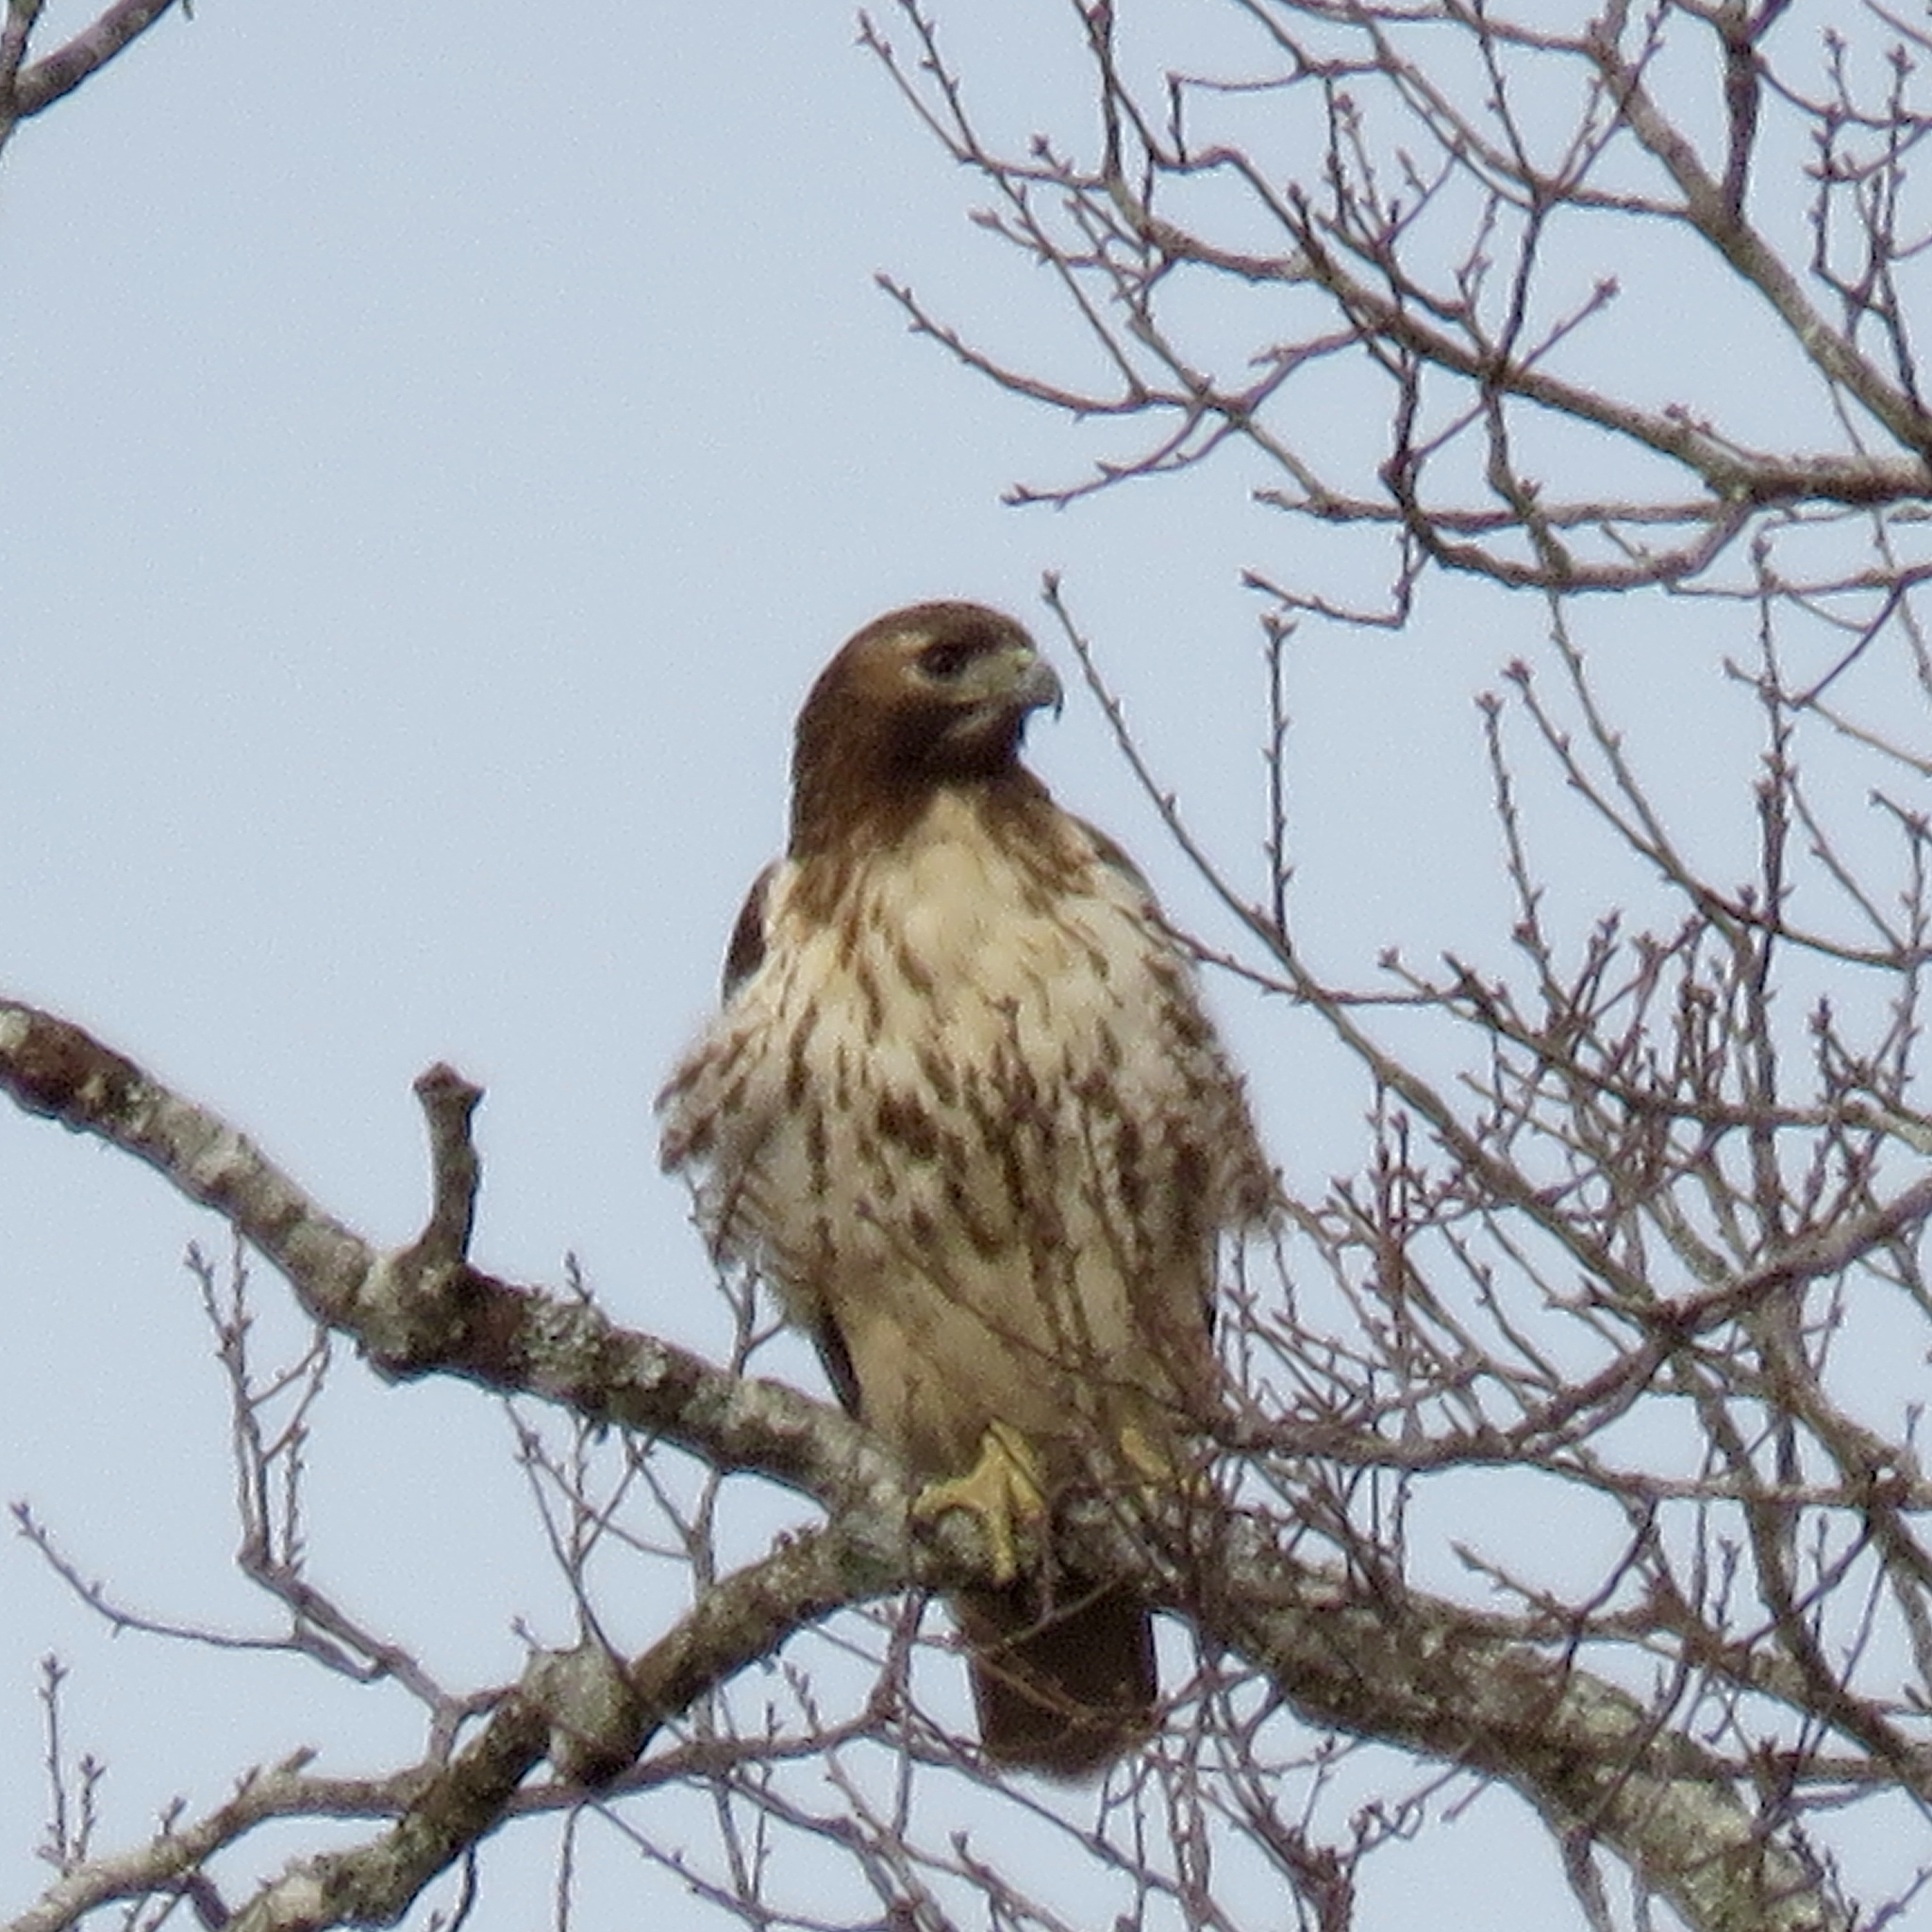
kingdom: Animalia
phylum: Chordata
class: Aves
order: Accipitriformes
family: Accipitridae
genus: Buteo
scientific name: Buteo jamaicensis
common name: Red-tailed hawk
